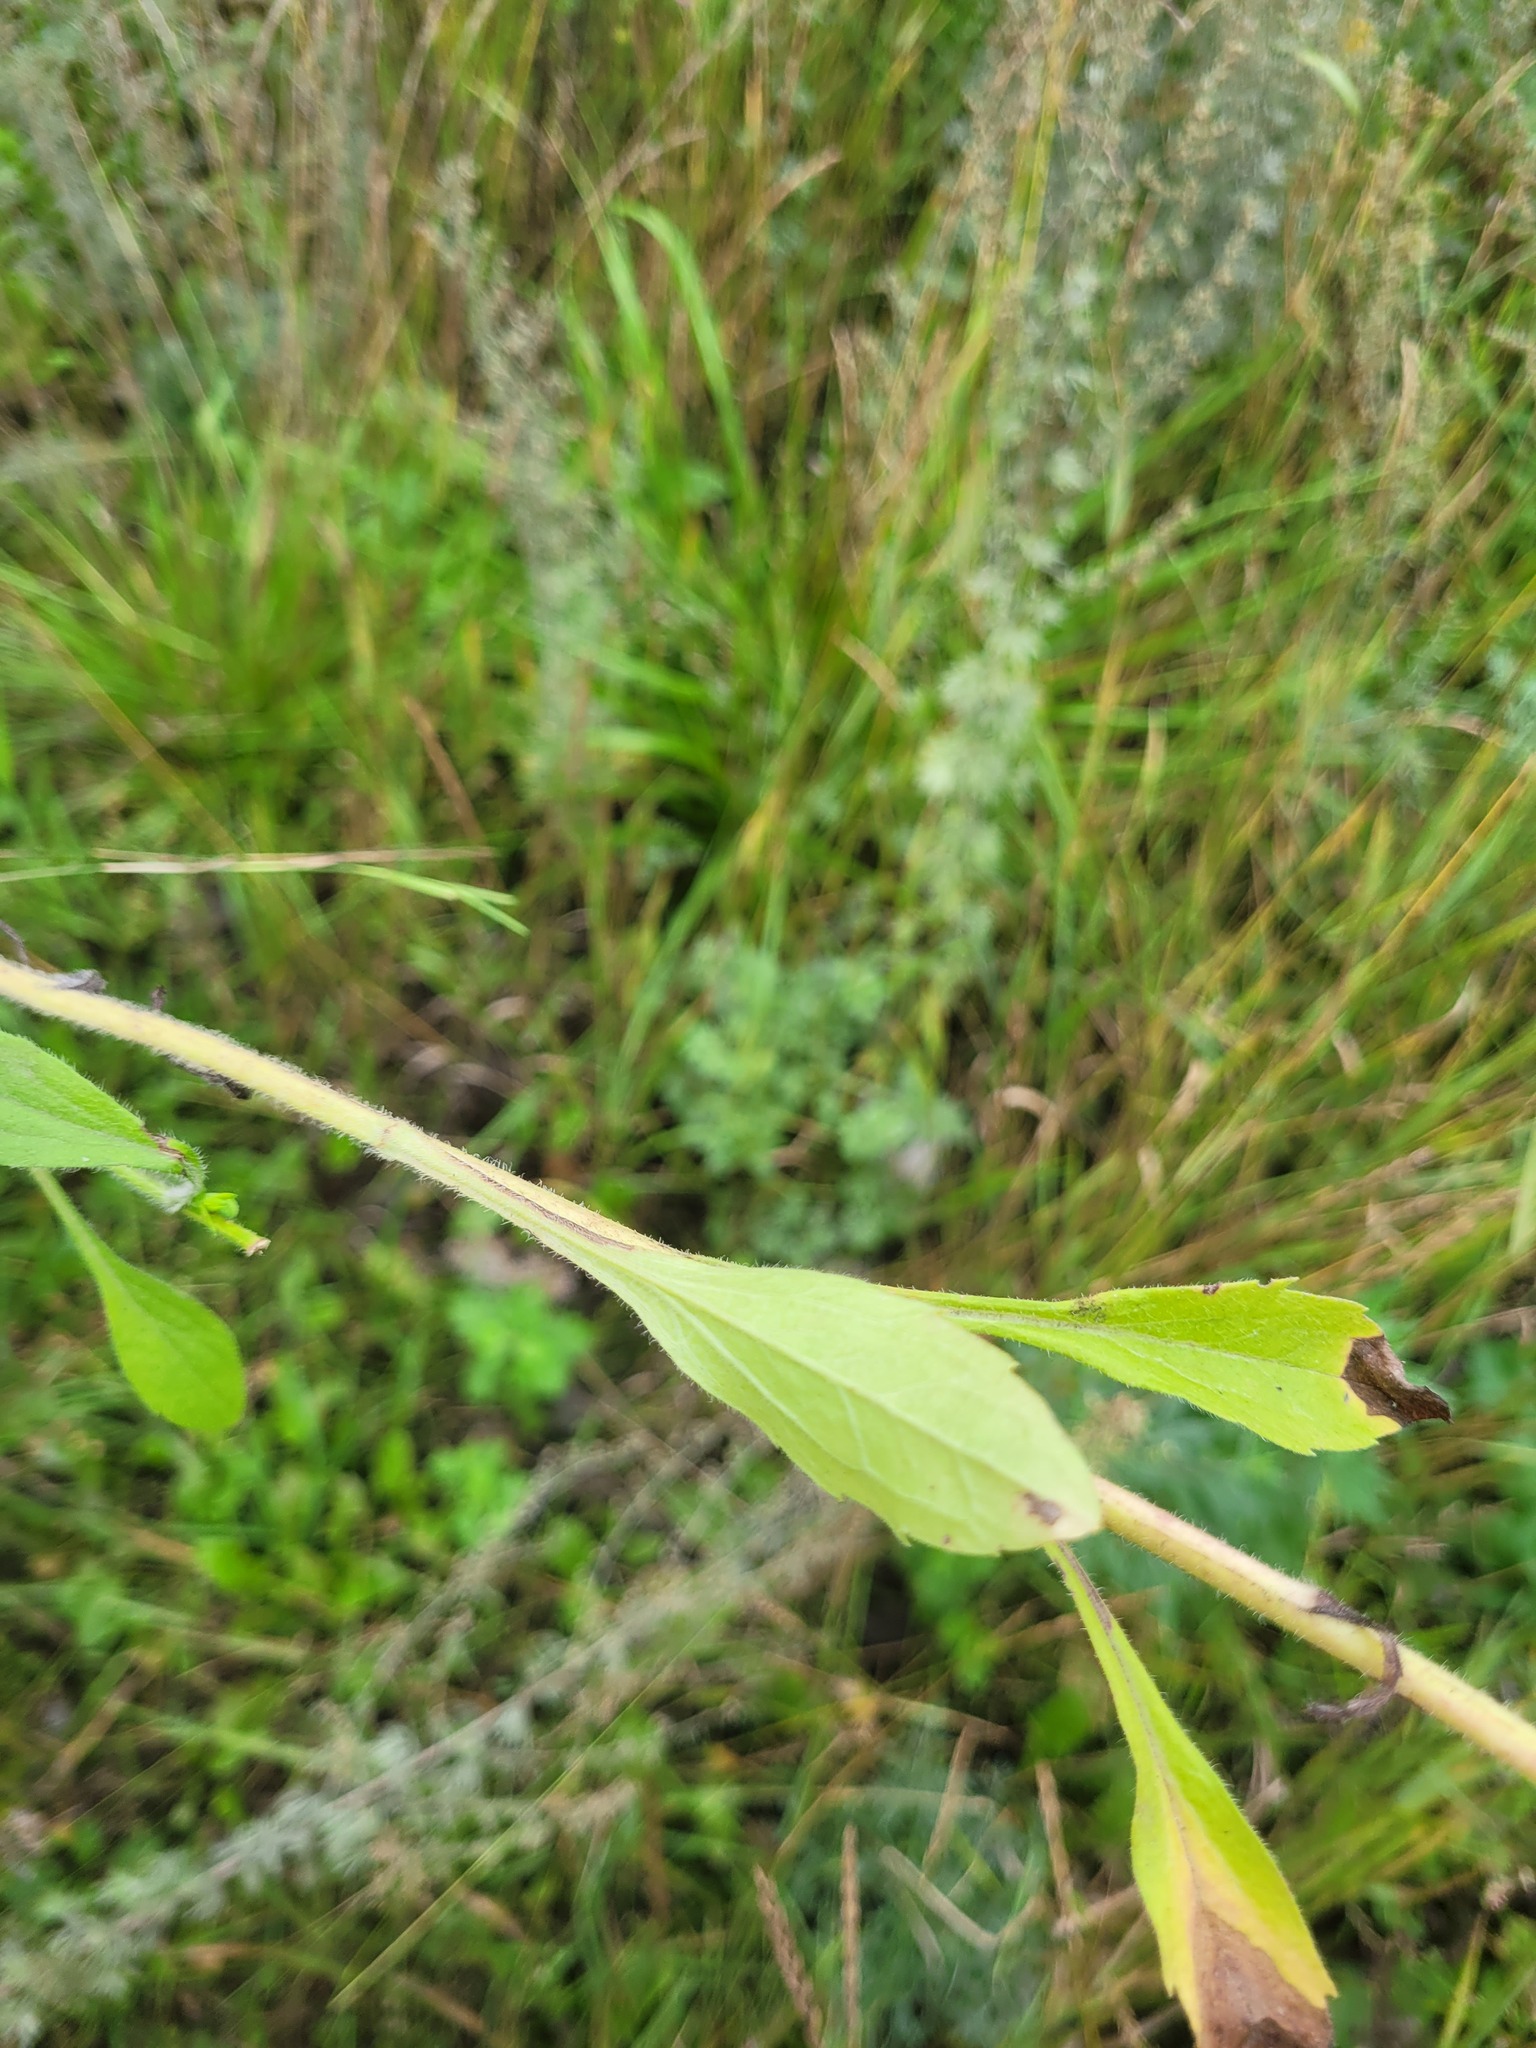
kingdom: Plantae
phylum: Tracheophyta
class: Magnoliopsida
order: Asterales
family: Asteraceae
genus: Erigeron
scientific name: Erigeron annuus
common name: Tall fleabane
